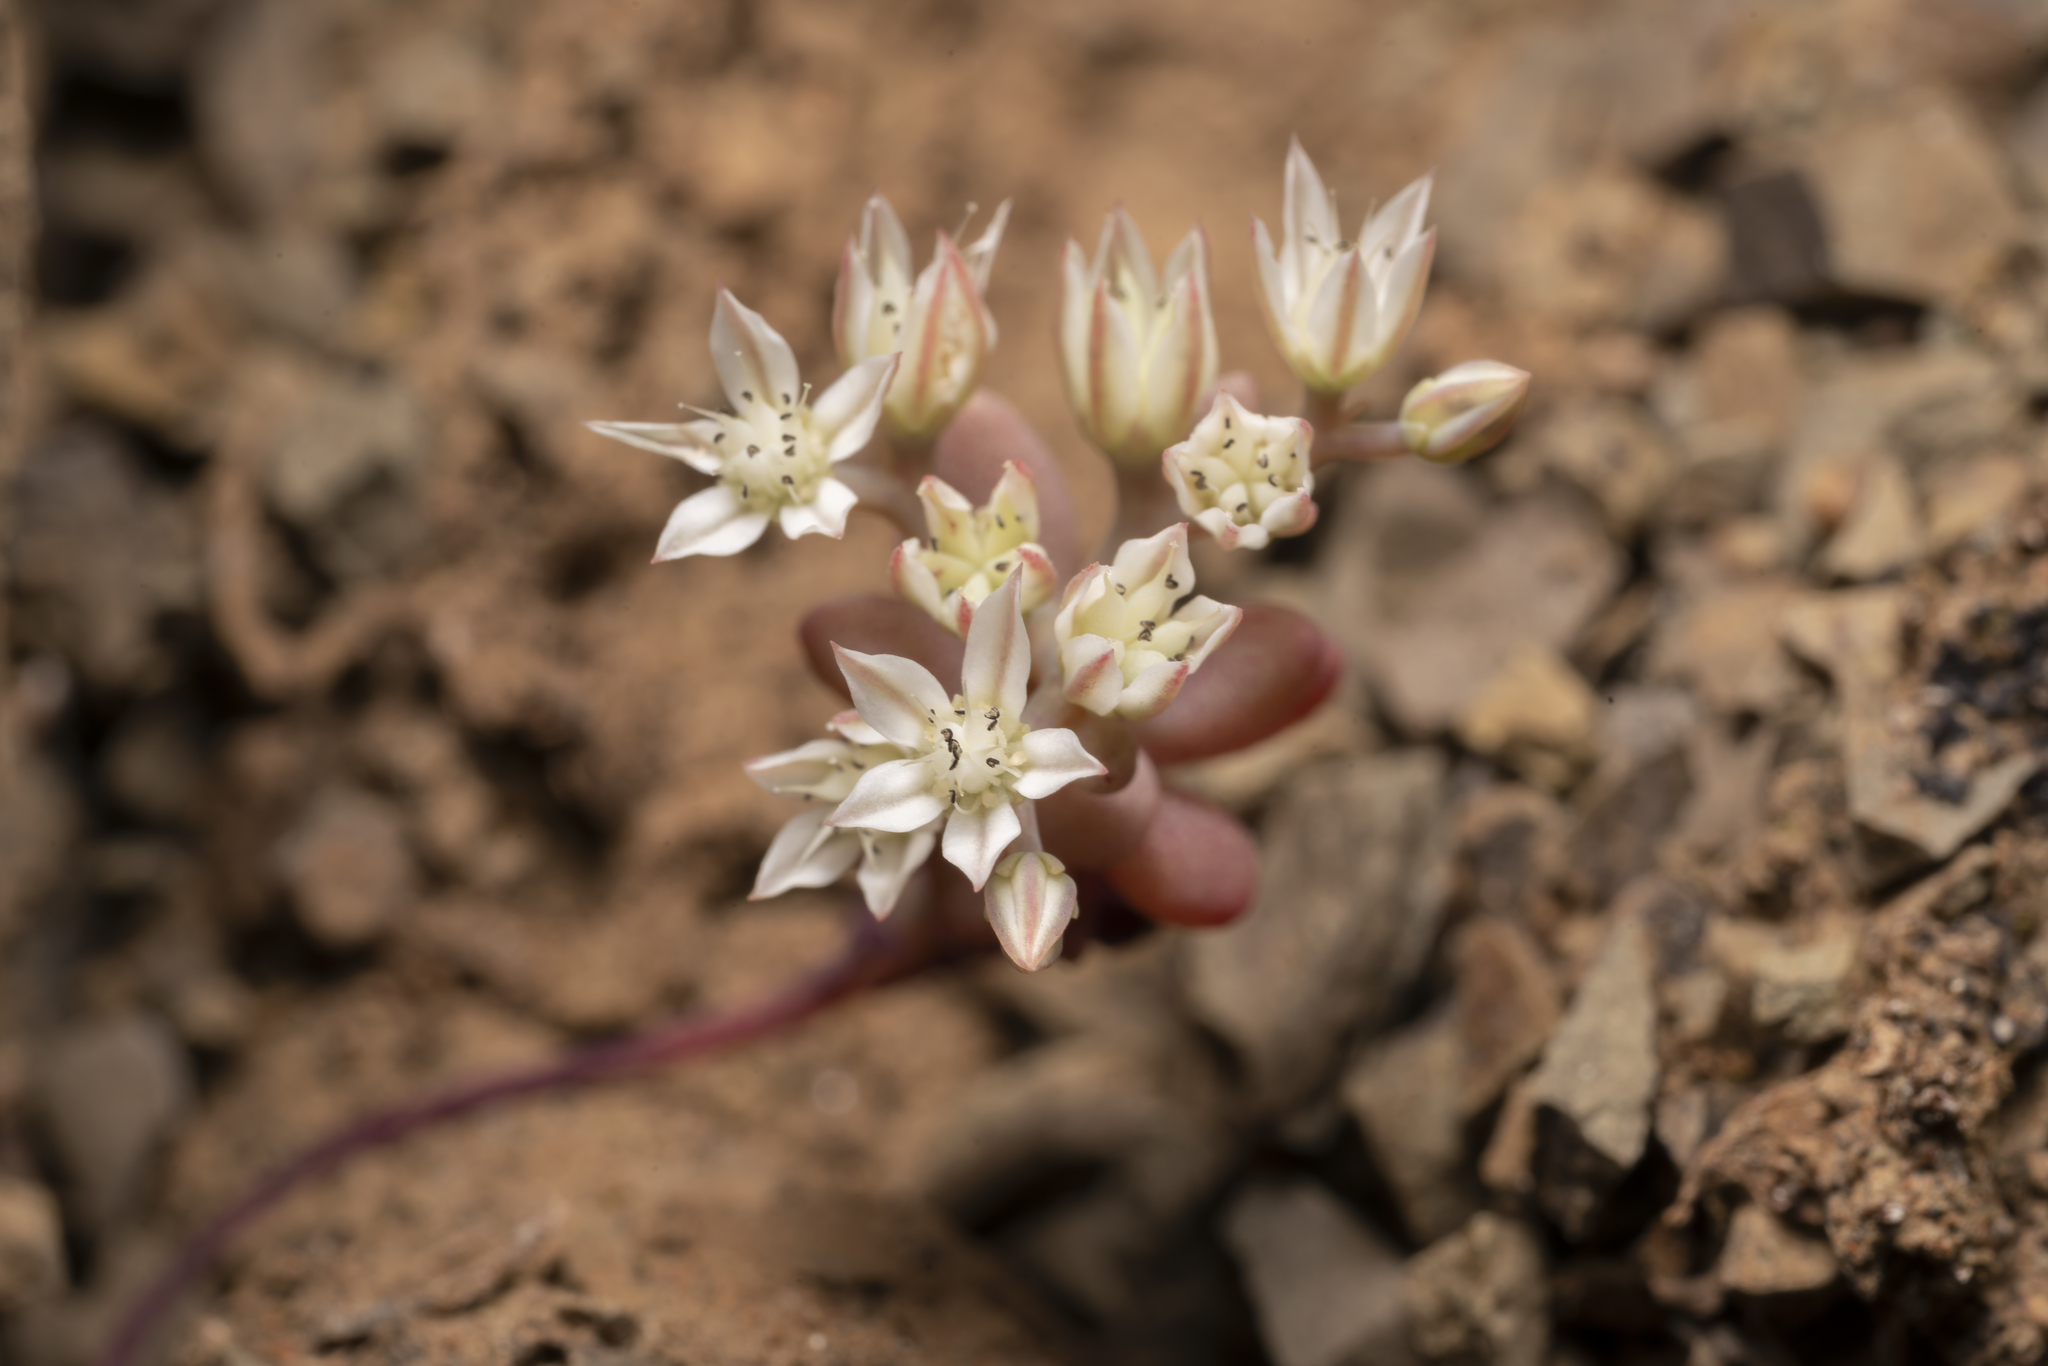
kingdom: Plantae
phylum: Tracheophyta
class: Magnoliopsida
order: Saxifragales
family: Crassulaceae
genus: Sedum
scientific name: Sedum eriocarpum
